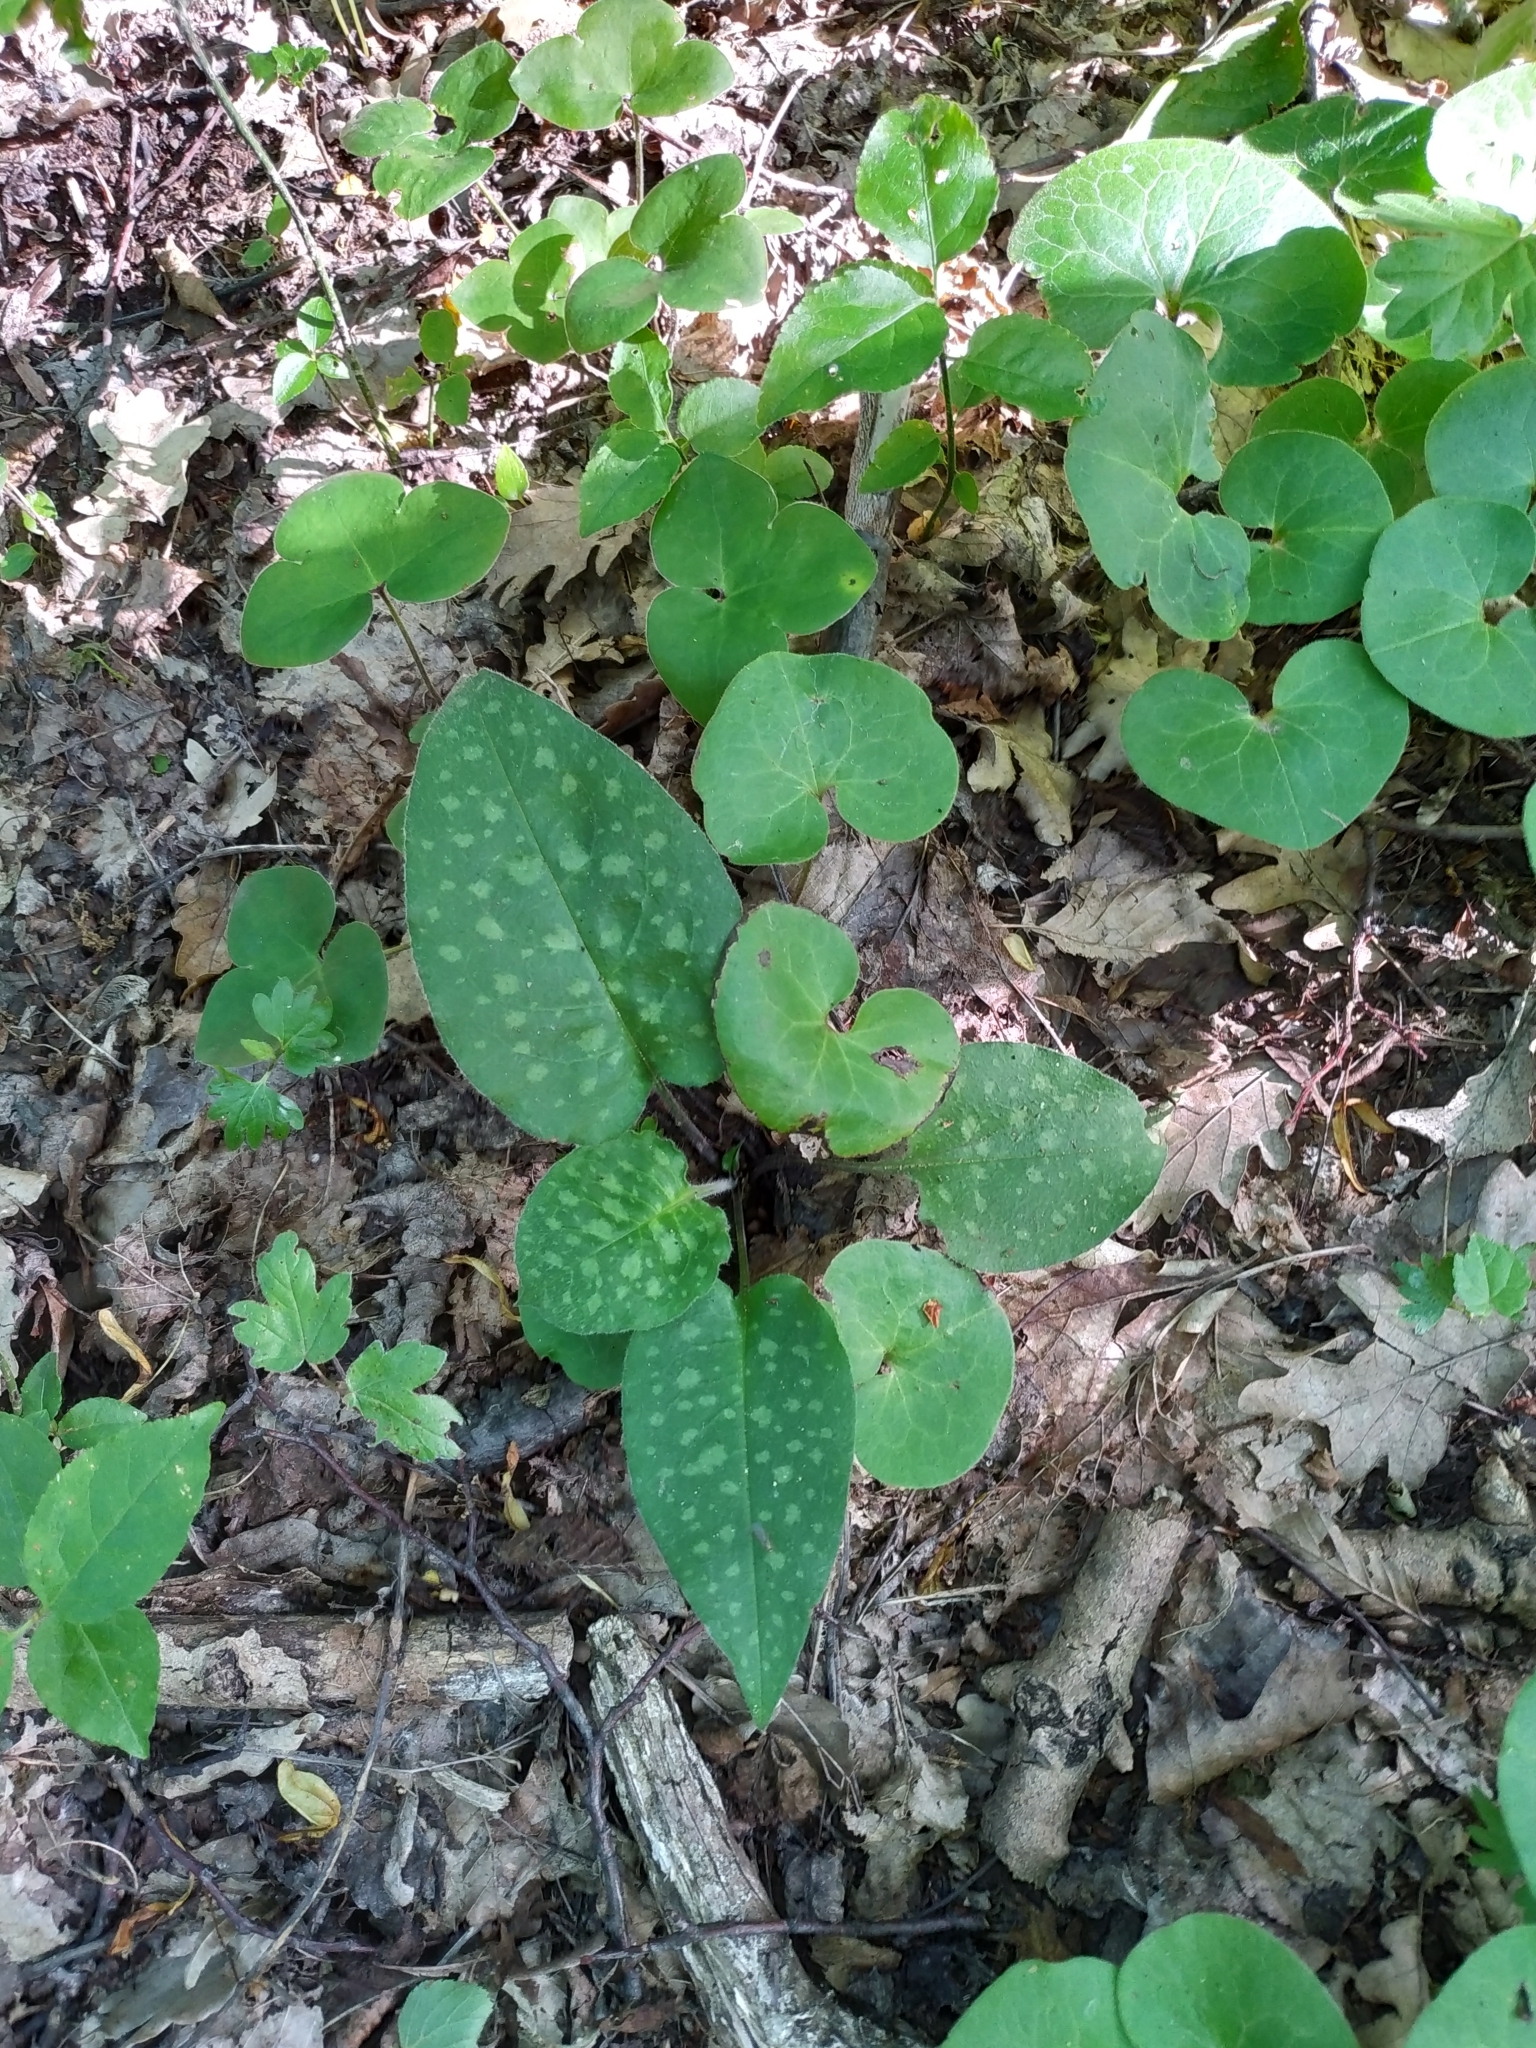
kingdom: Plantae
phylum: Tracheophyta
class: Magnoliopsida
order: Boraginales
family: Boraginaceae
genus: Pulmonaria
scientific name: Pulmonaria officinalis
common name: Lungwort
